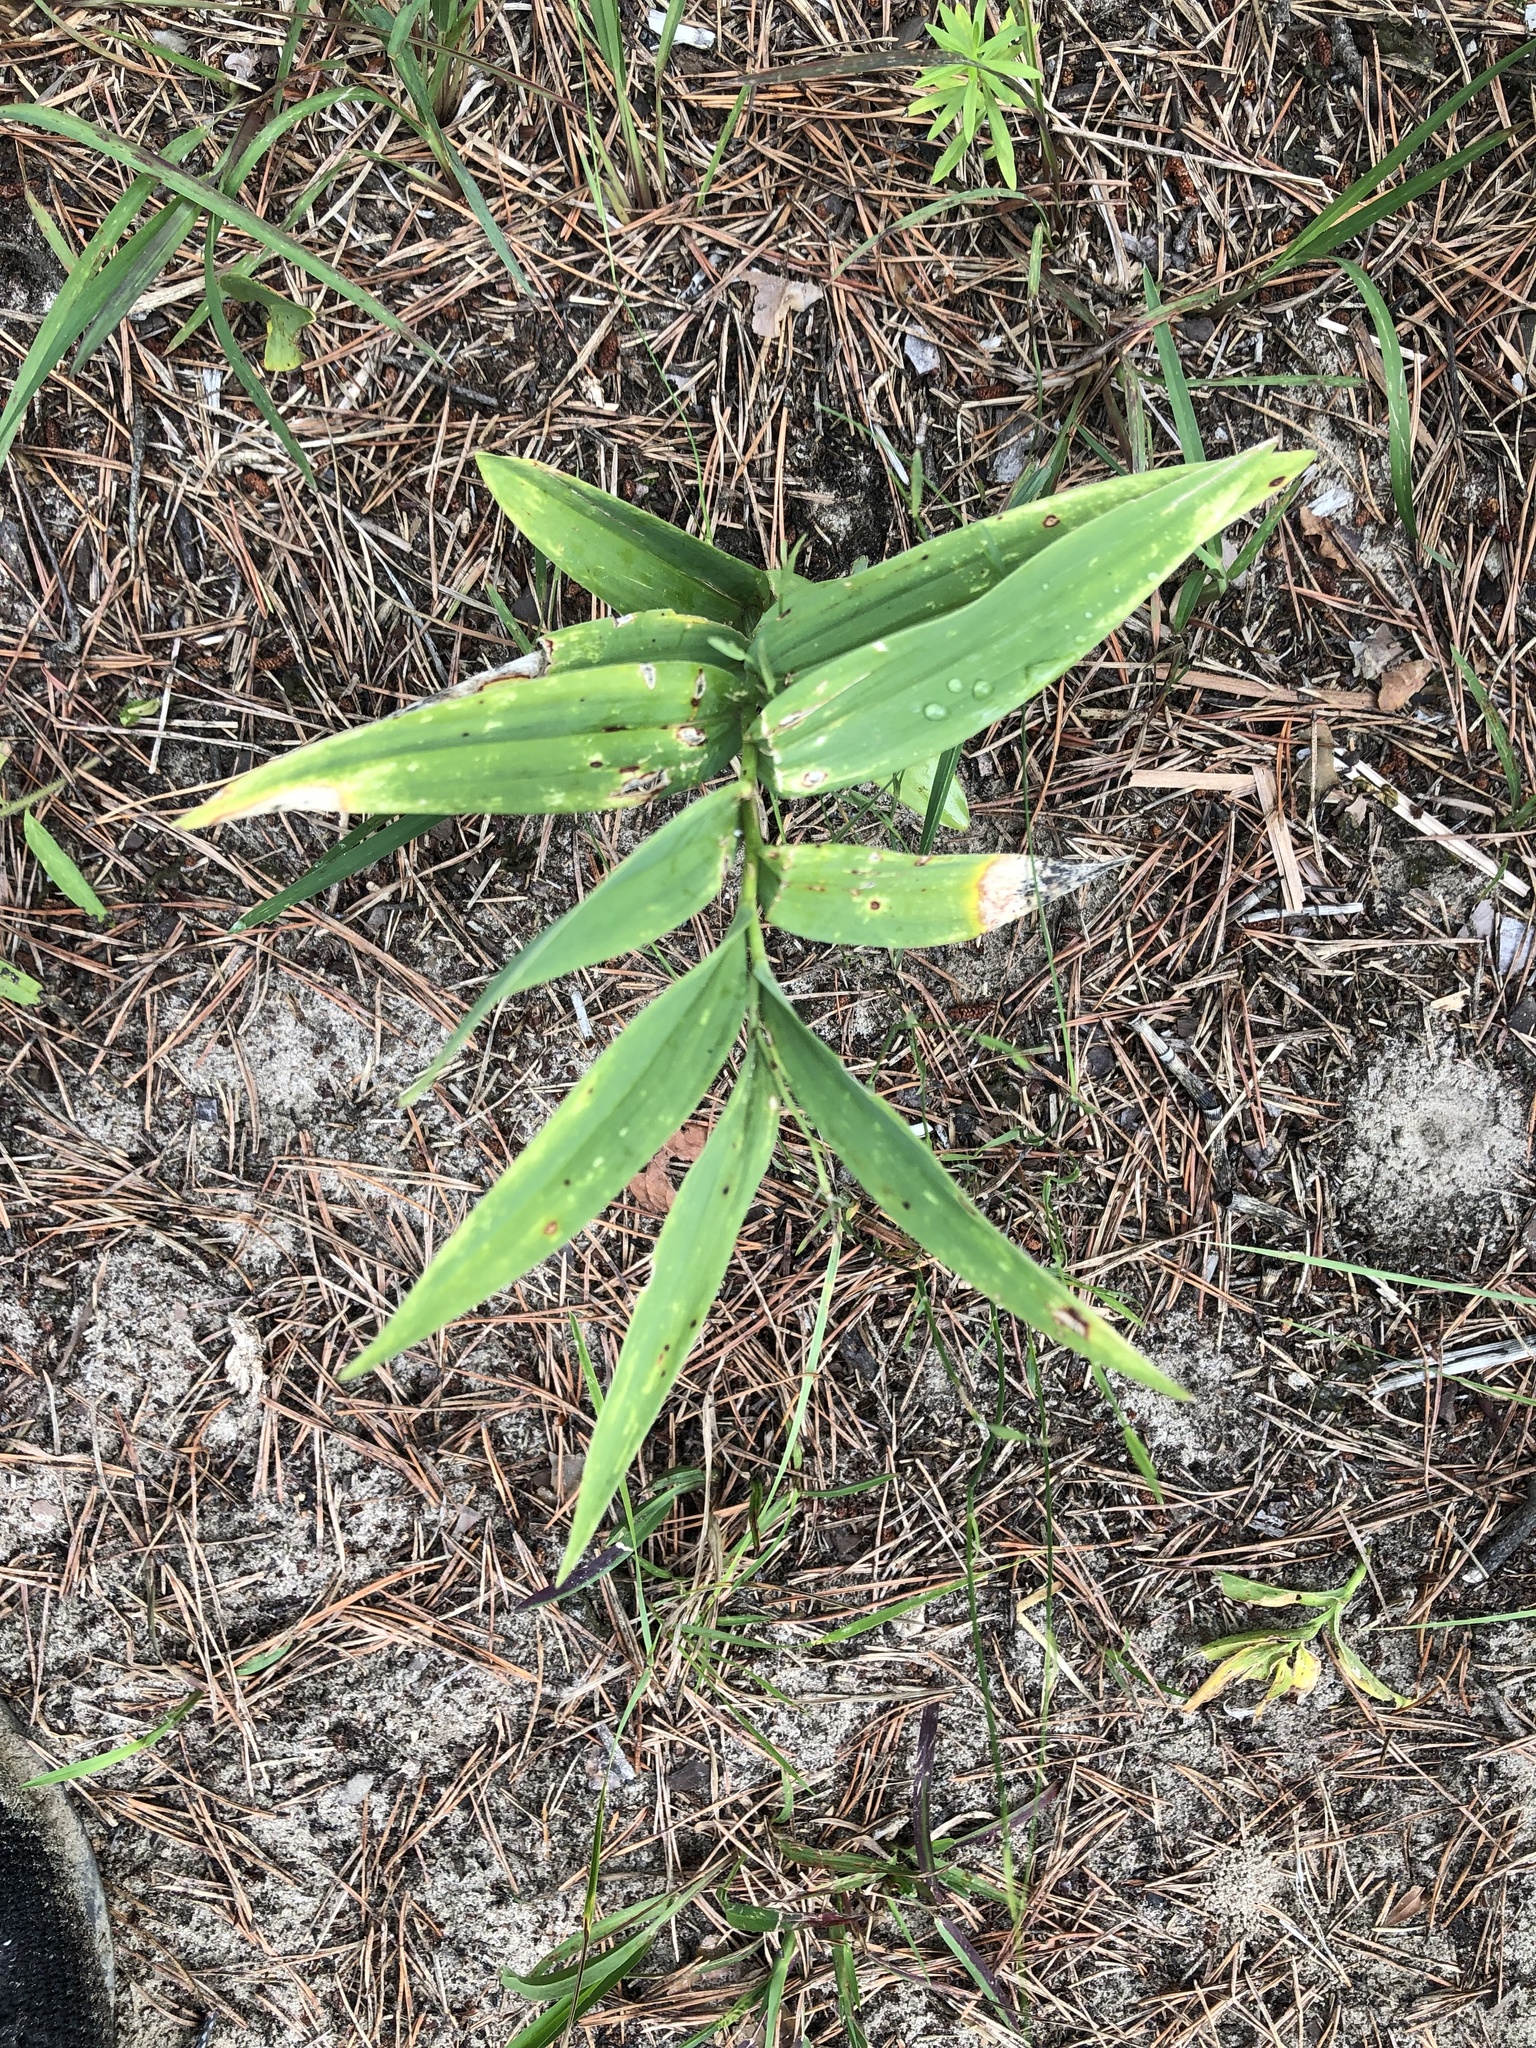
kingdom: Plantae
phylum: Tracheophyta
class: Liliopsida
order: Asparagales
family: Asparagaceae
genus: Maianthemum
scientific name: Maianthemum stellatum
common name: Little false solomon's seal
